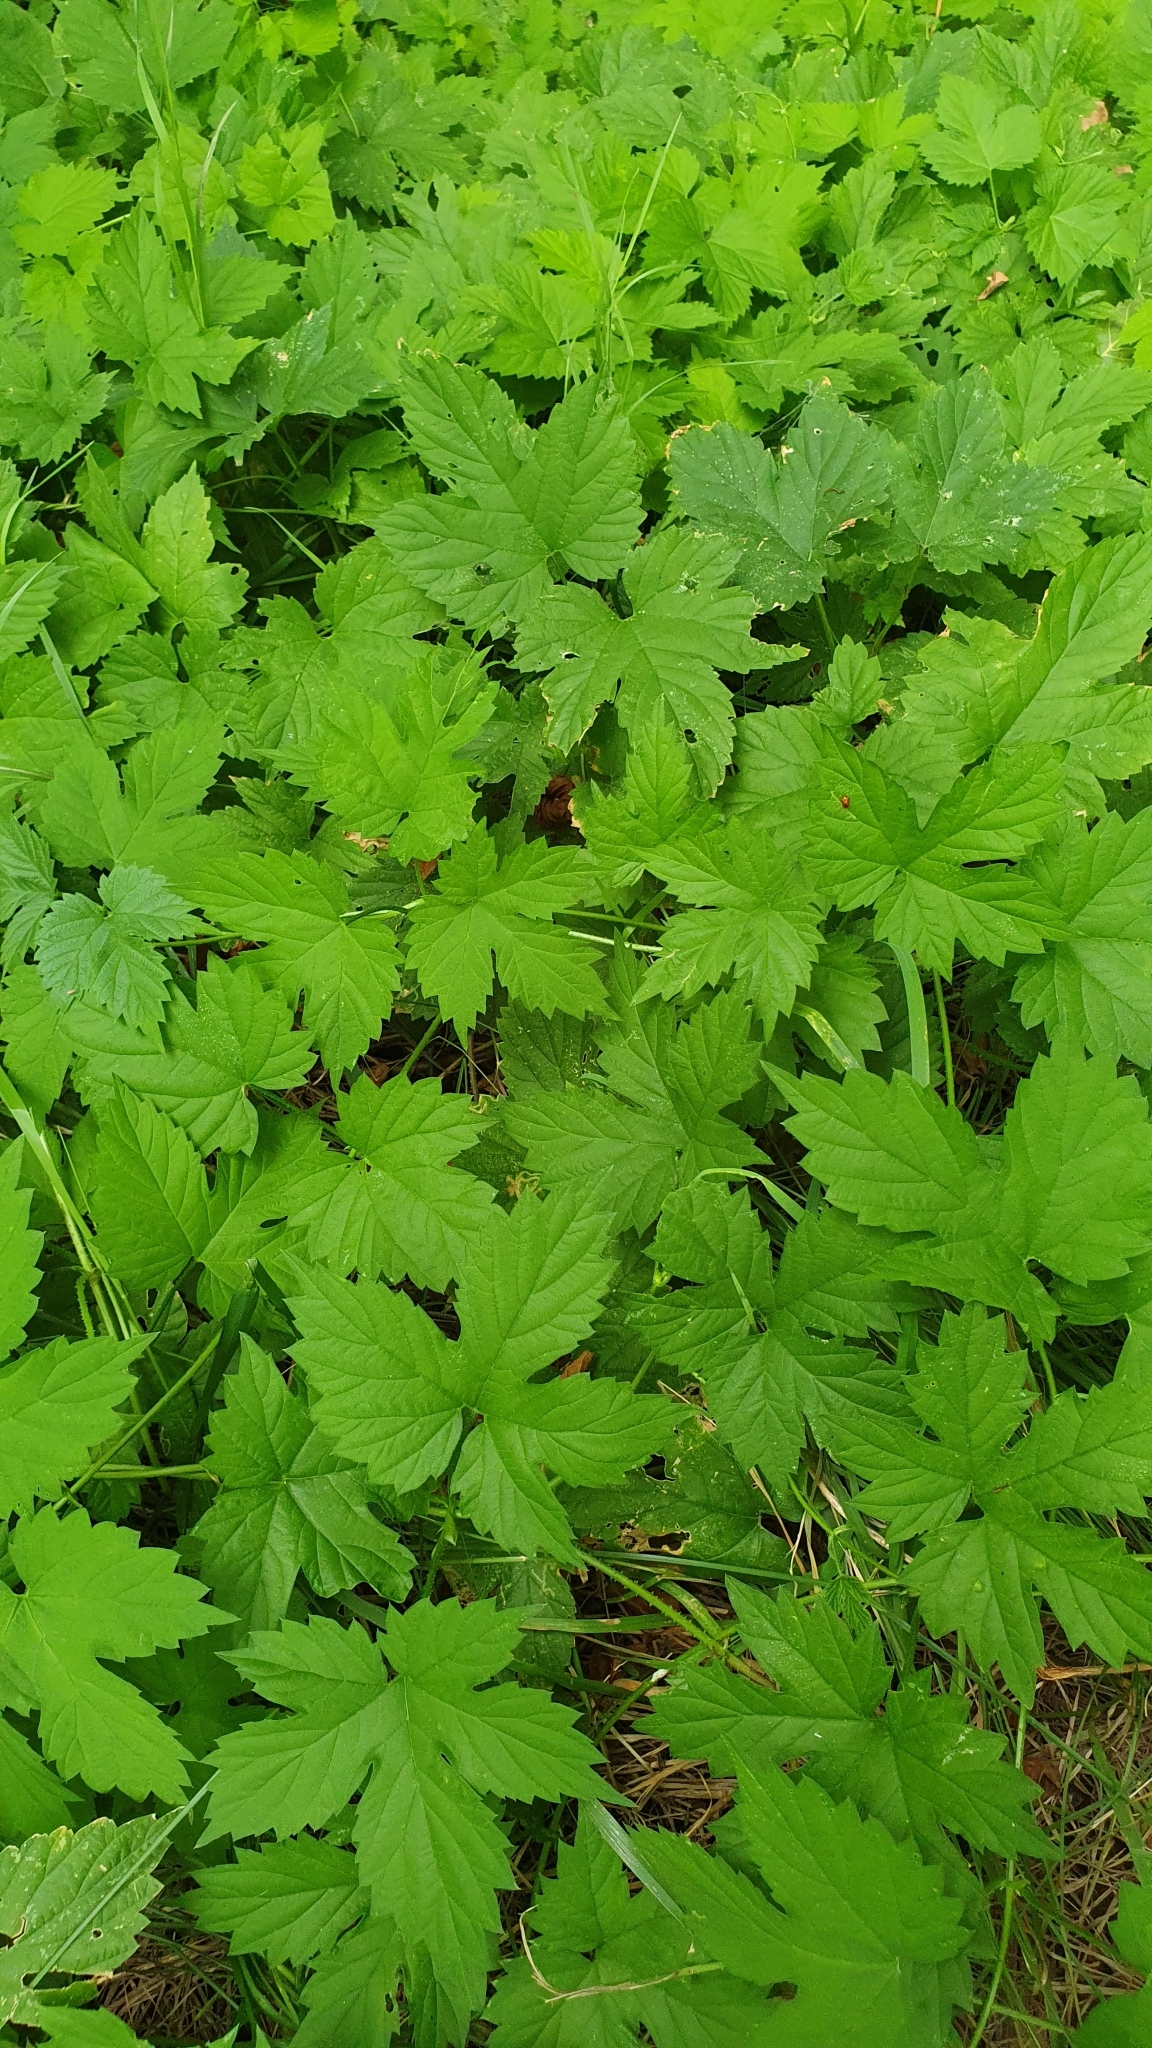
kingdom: Plantae
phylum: Tracheophyta
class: Magnoliopsida
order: Rosales
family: Cannabaceae
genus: Humulus
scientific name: Humulus lupulus
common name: Hop
